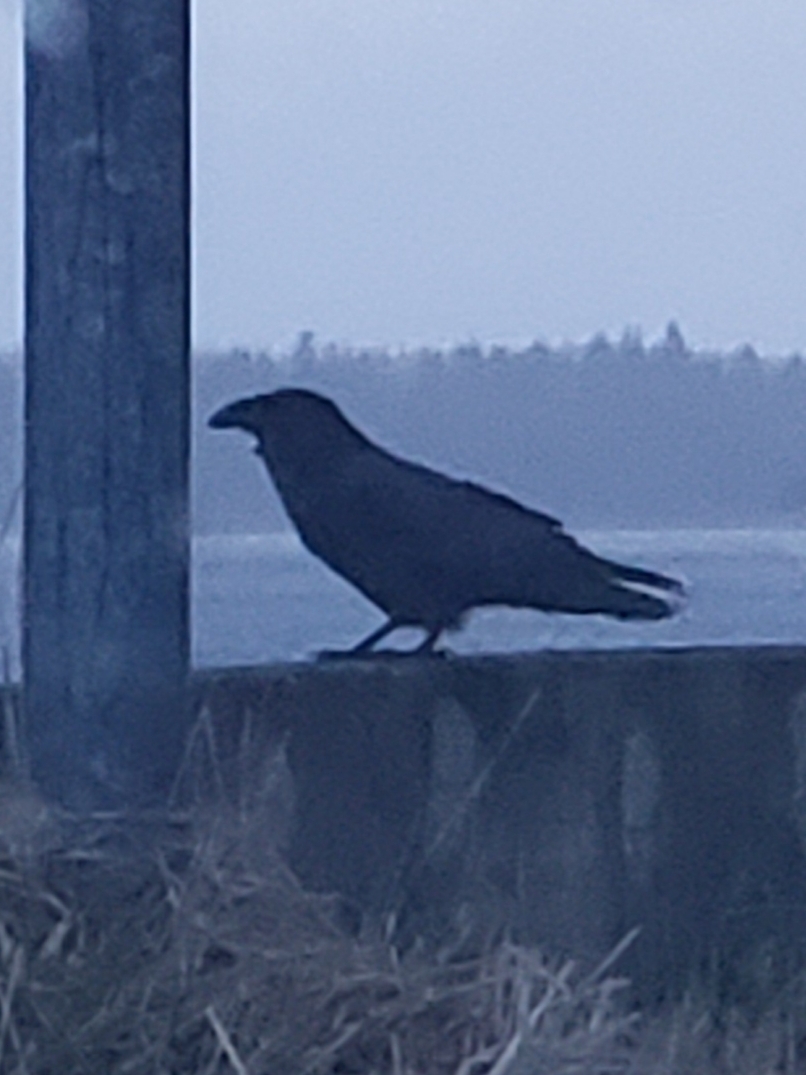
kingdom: Animalia
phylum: Chordata
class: Aves
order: Passeriformes
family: Corvidae
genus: Corvus
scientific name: Corvus corax
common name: Common raven
